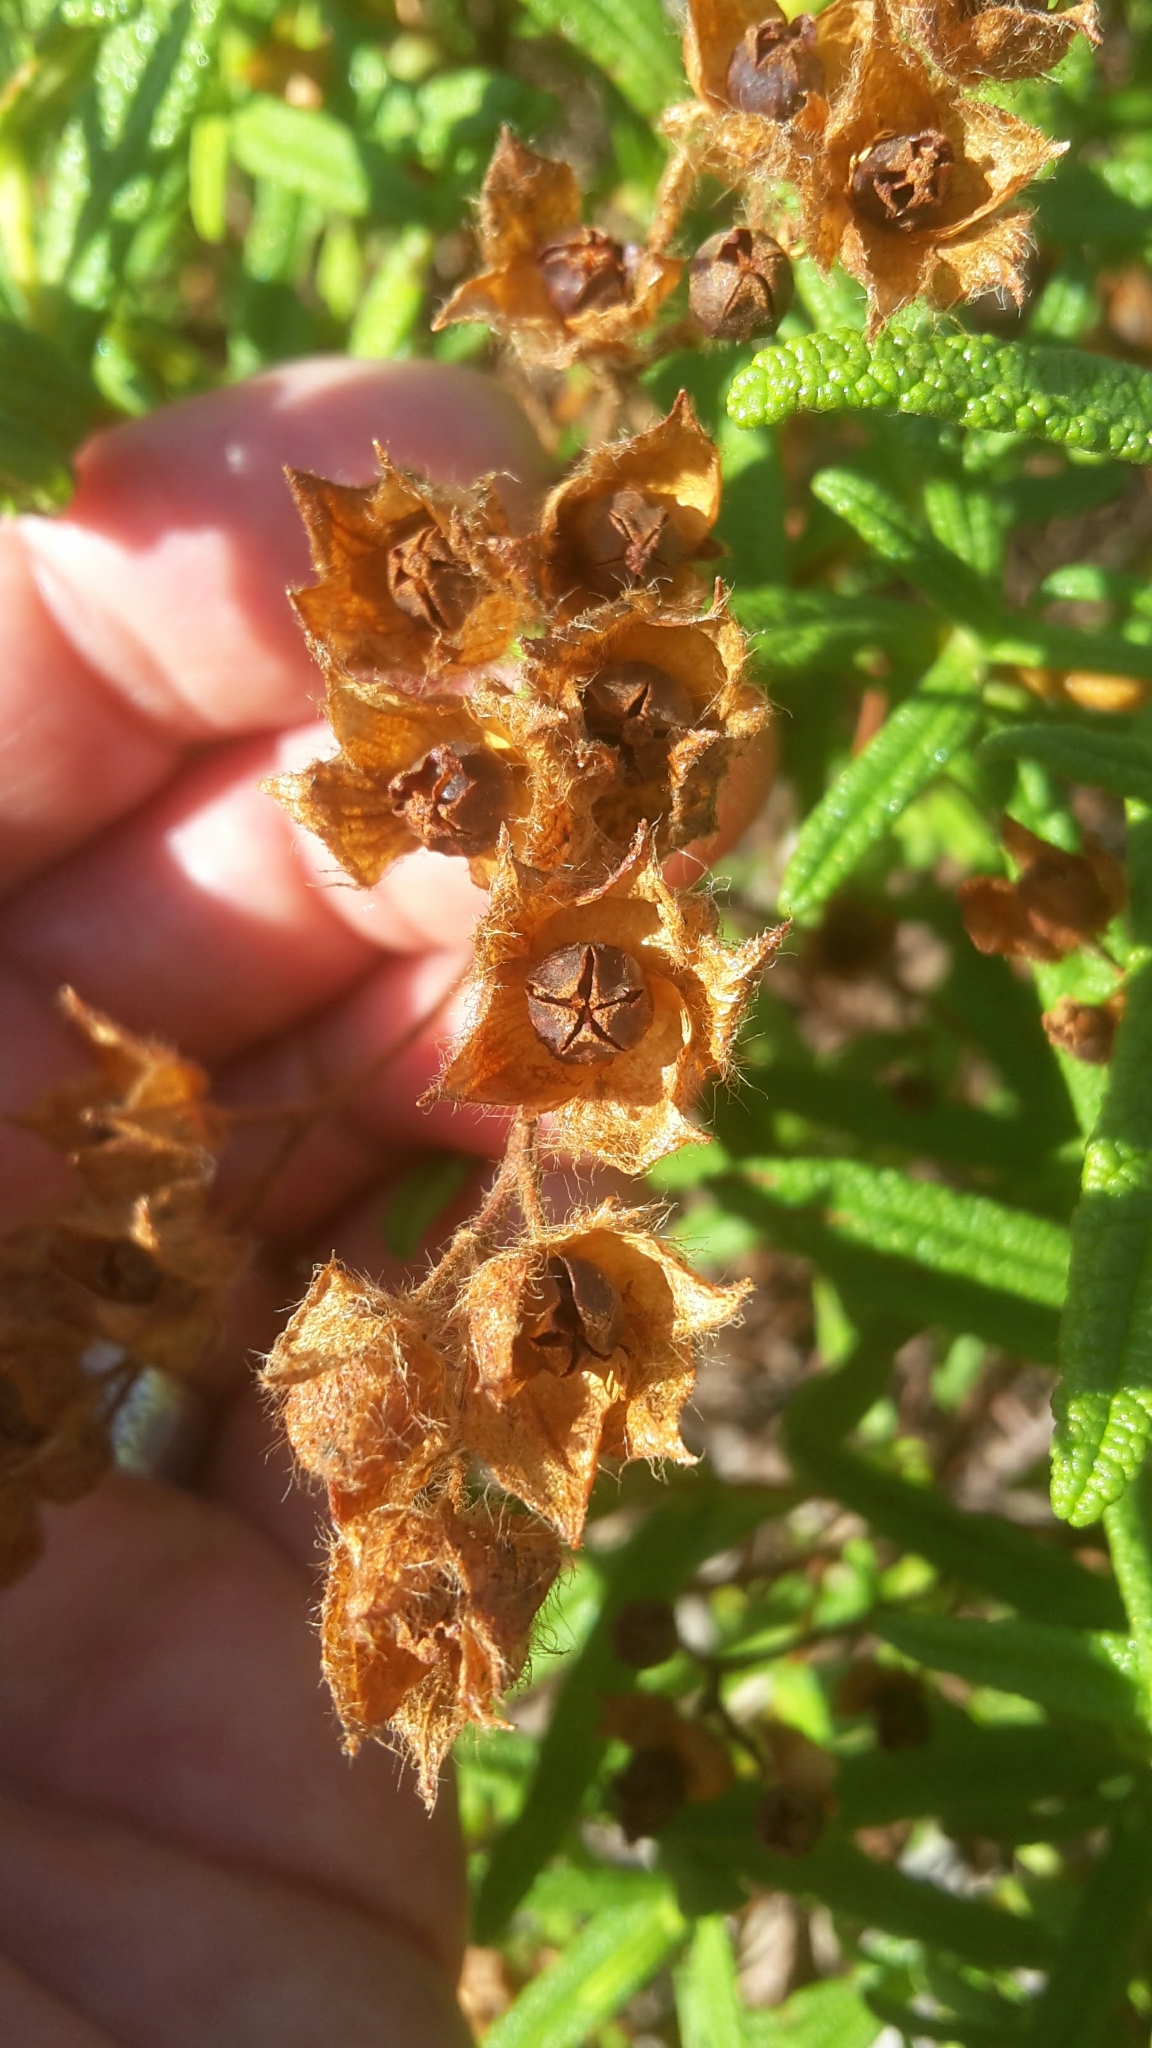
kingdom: Plantae
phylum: Tracheophyta
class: Magnoliopsida
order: Malvales
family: Cistaceae
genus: Cistus
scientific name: Cistus monspeliensis
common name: Montpelier cistus
